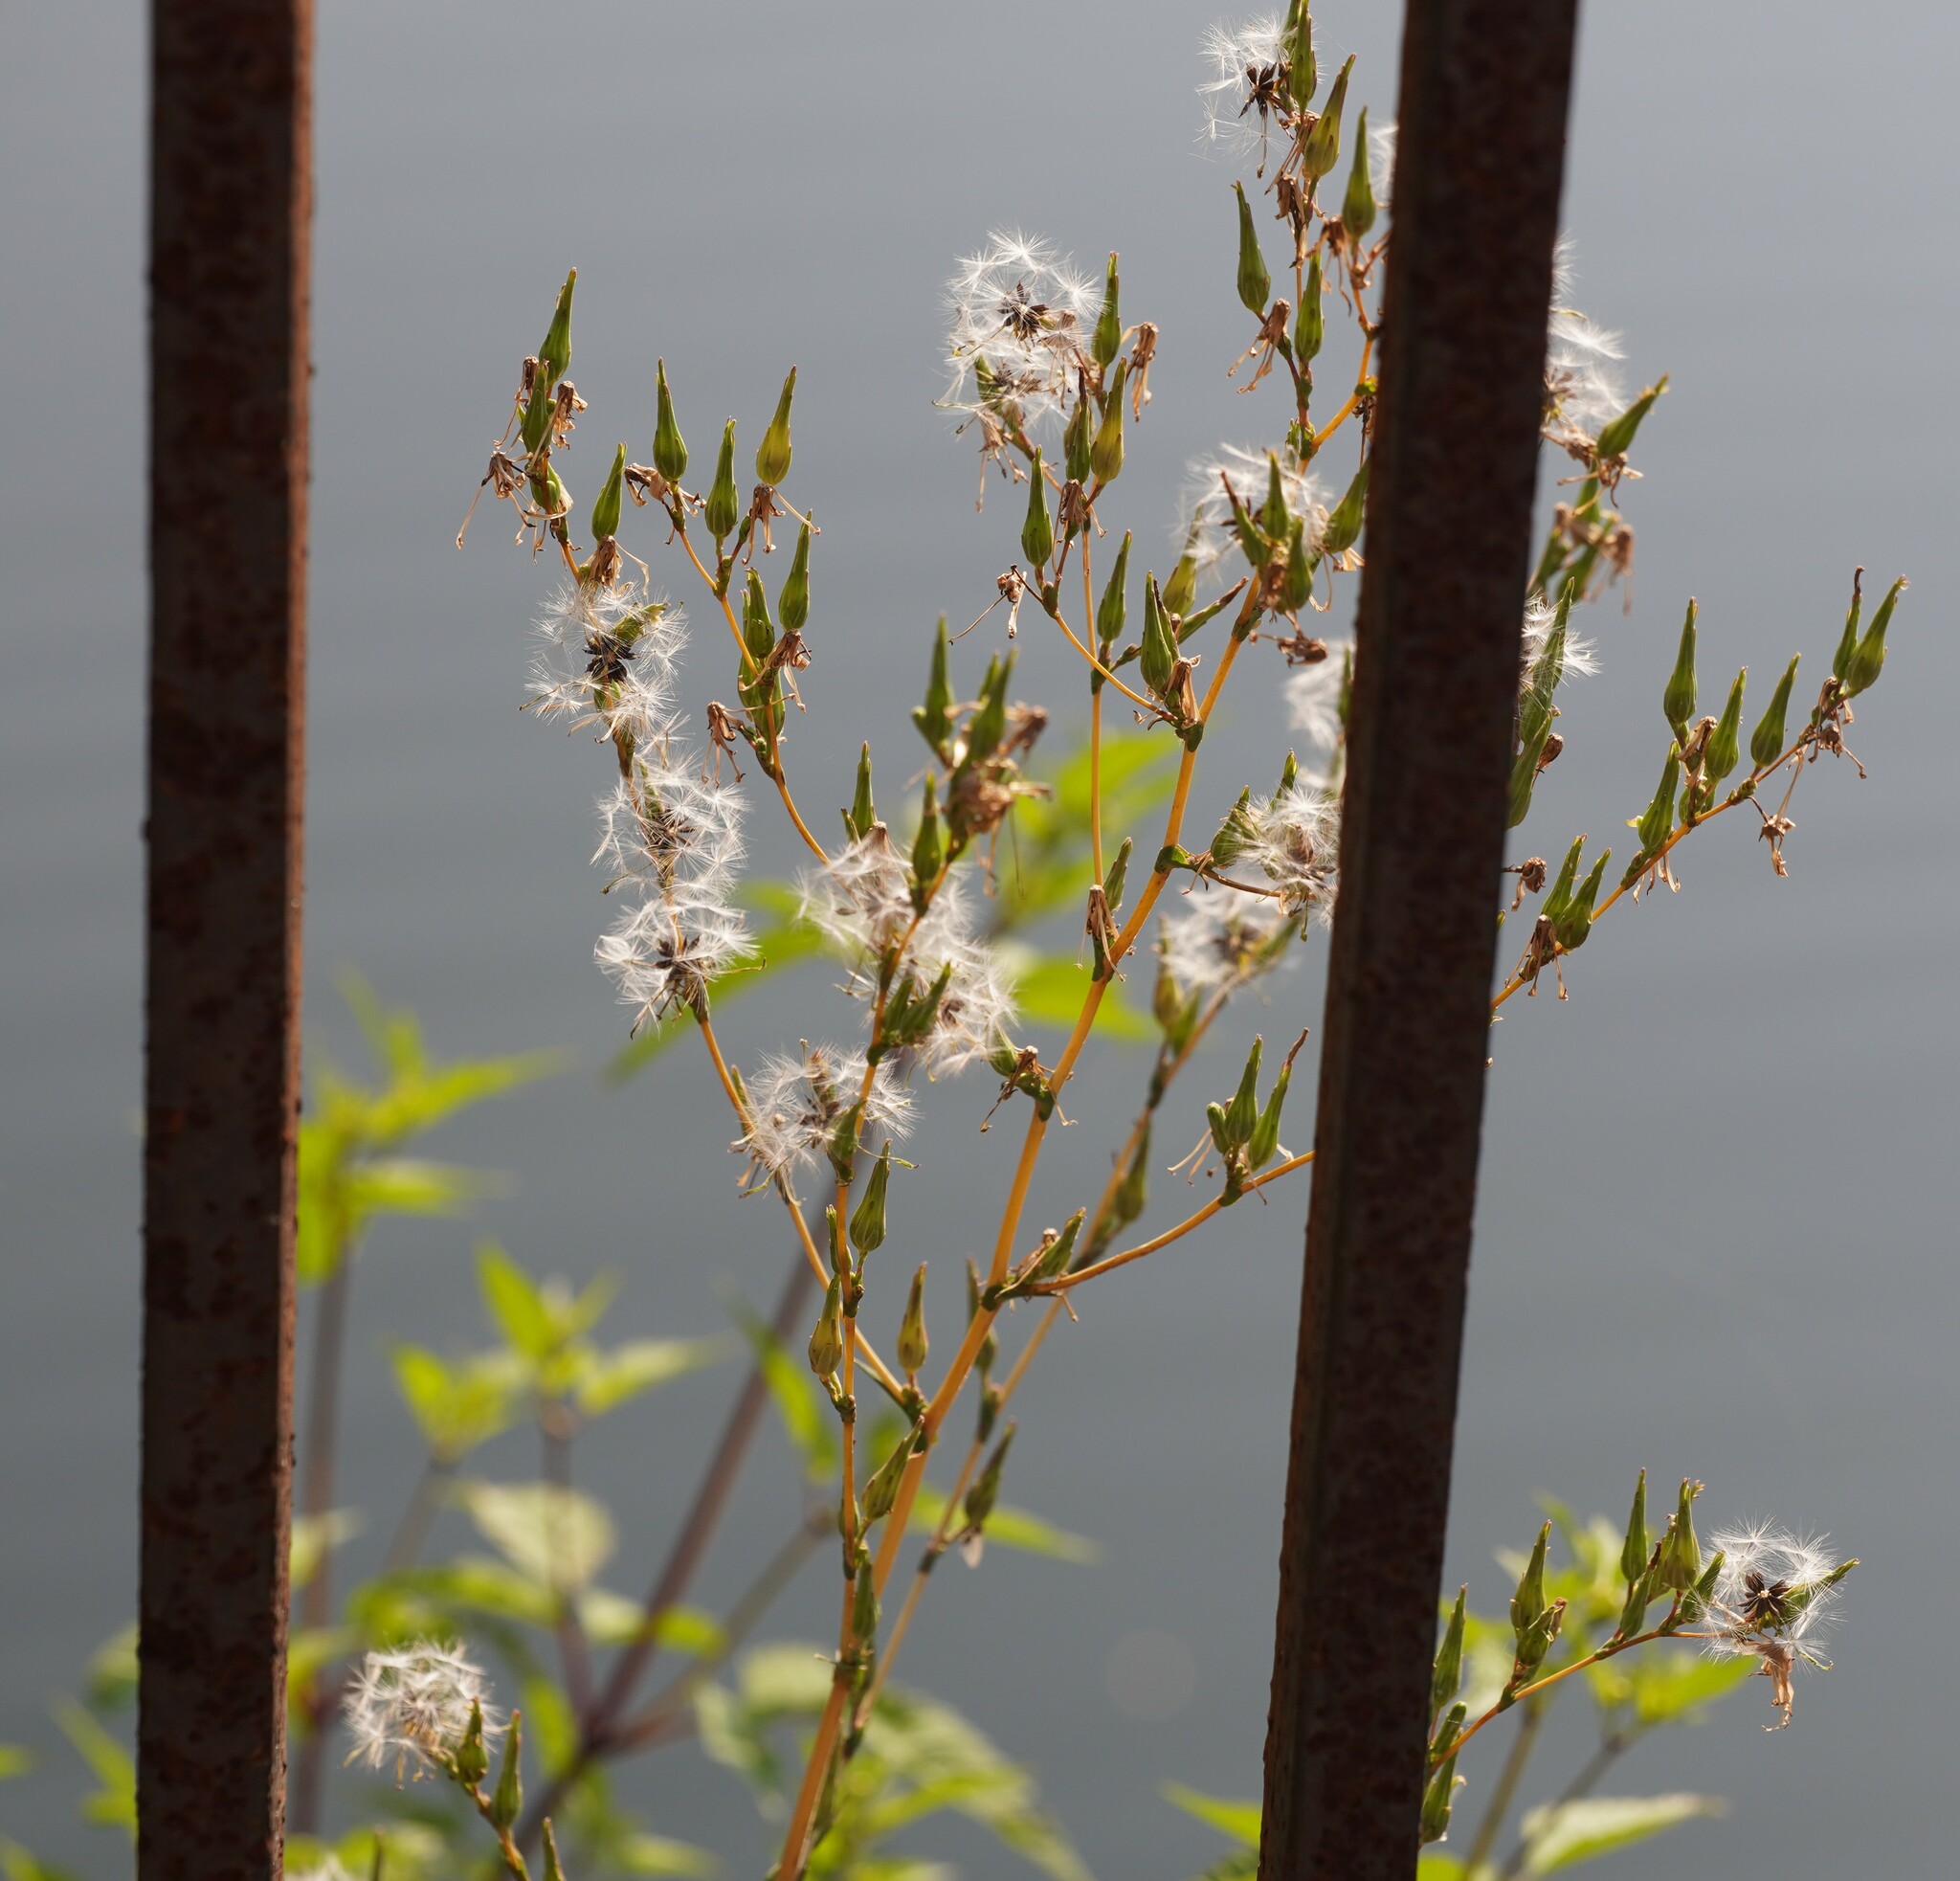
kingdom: Plantae
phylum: Tracheophyta
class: Magnoliopsida
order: Asterales
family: Asteraceae
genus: Lactuca
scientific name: Lactuca serriola
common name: Prickly lettuce
